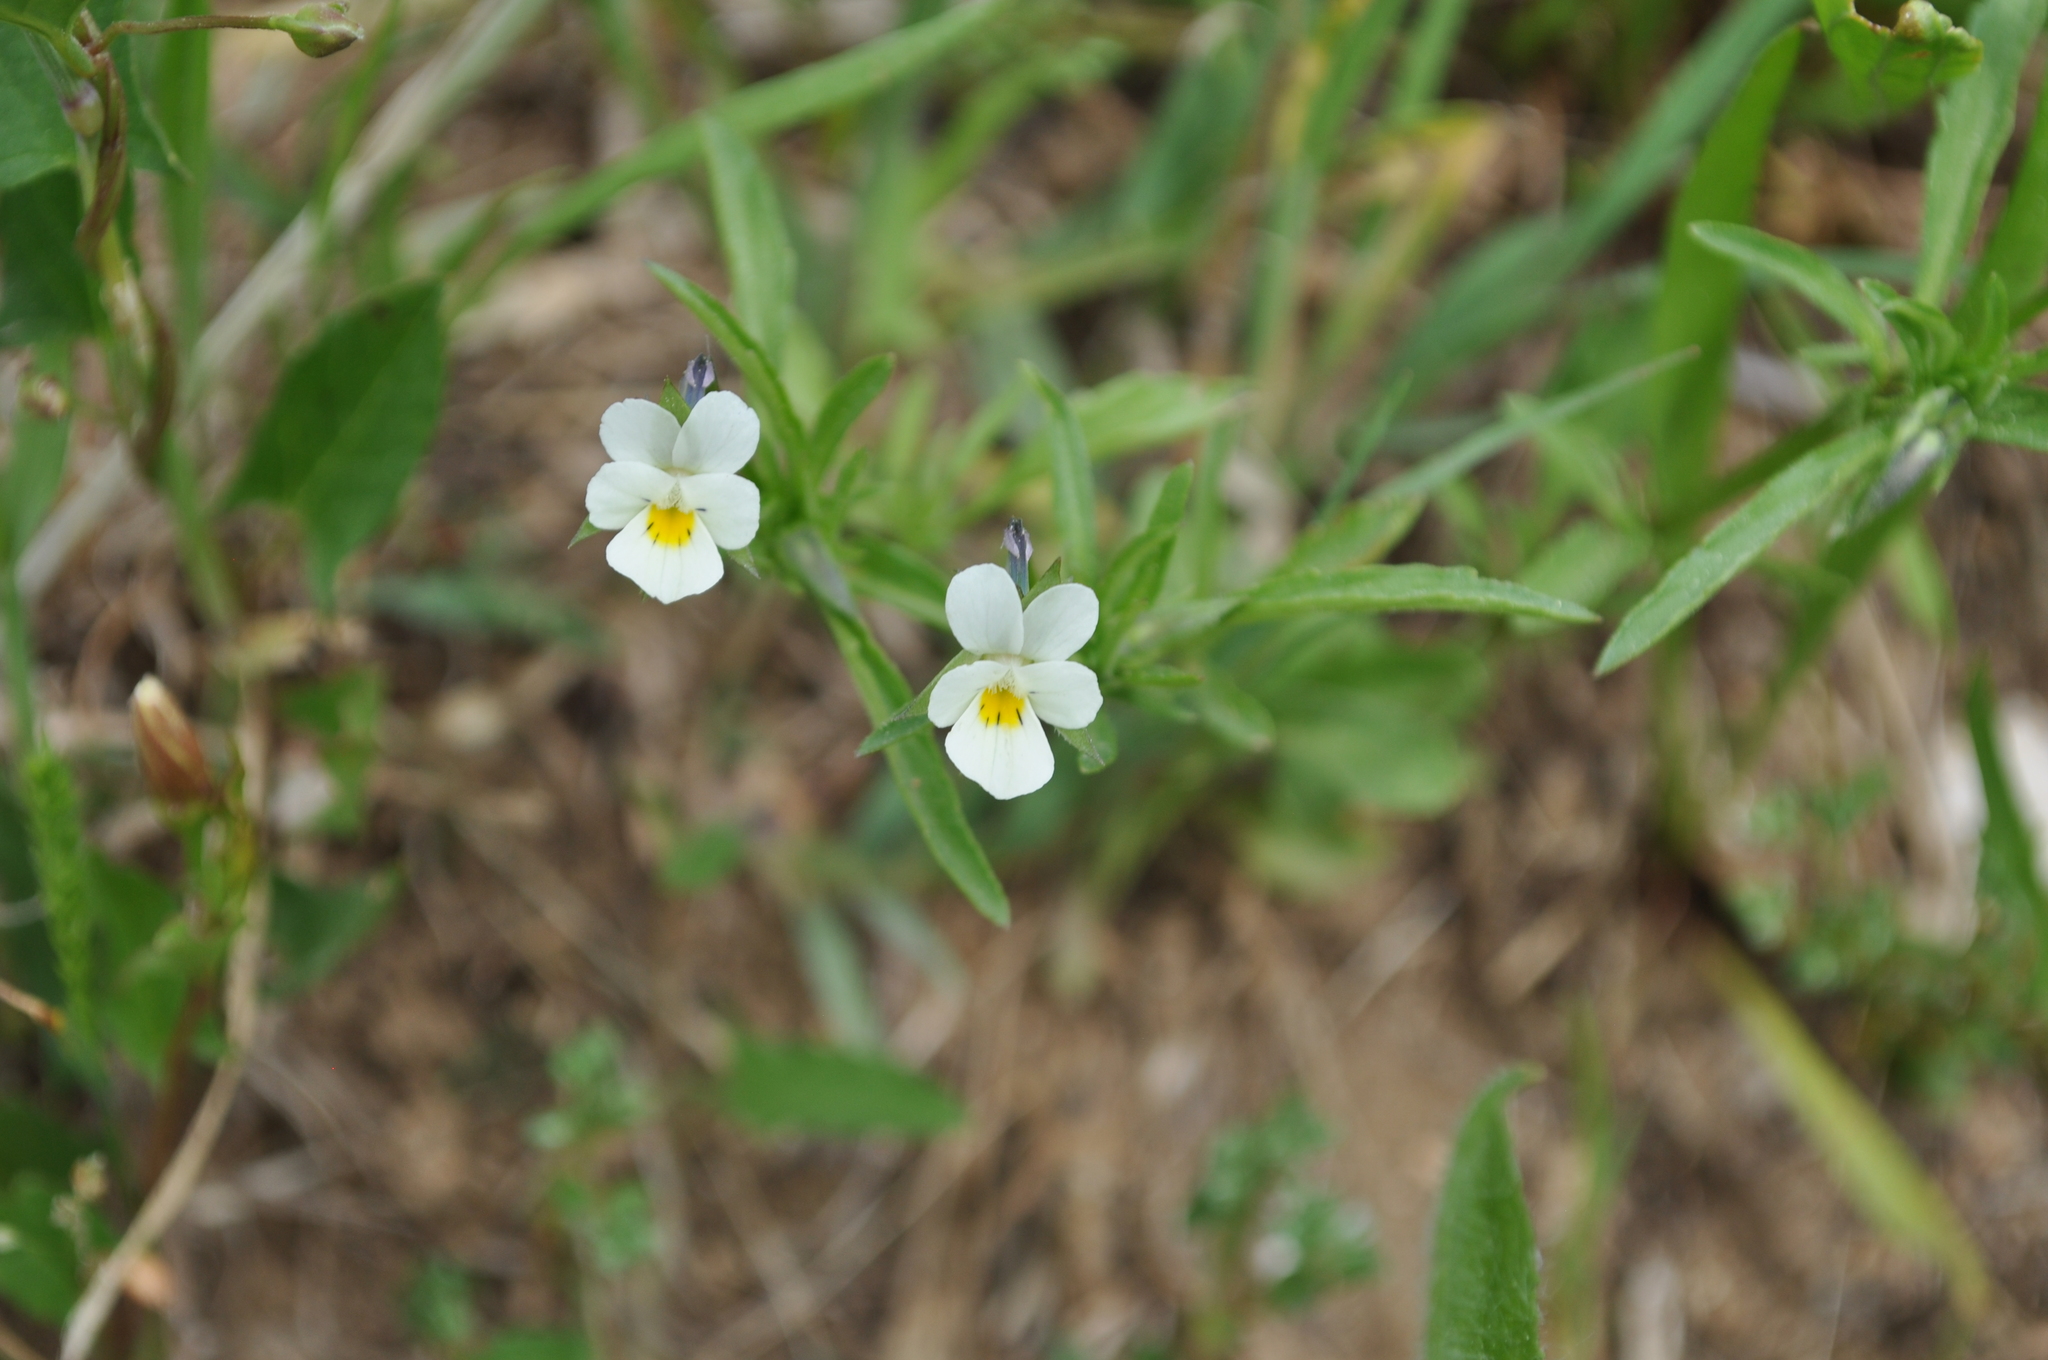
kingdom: Plantae
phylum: Tracheophyta
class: Magnoliopsida
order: Malpighiales
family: Violaceae
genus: Viola
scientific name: Viola arvensis
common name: Field pansy
